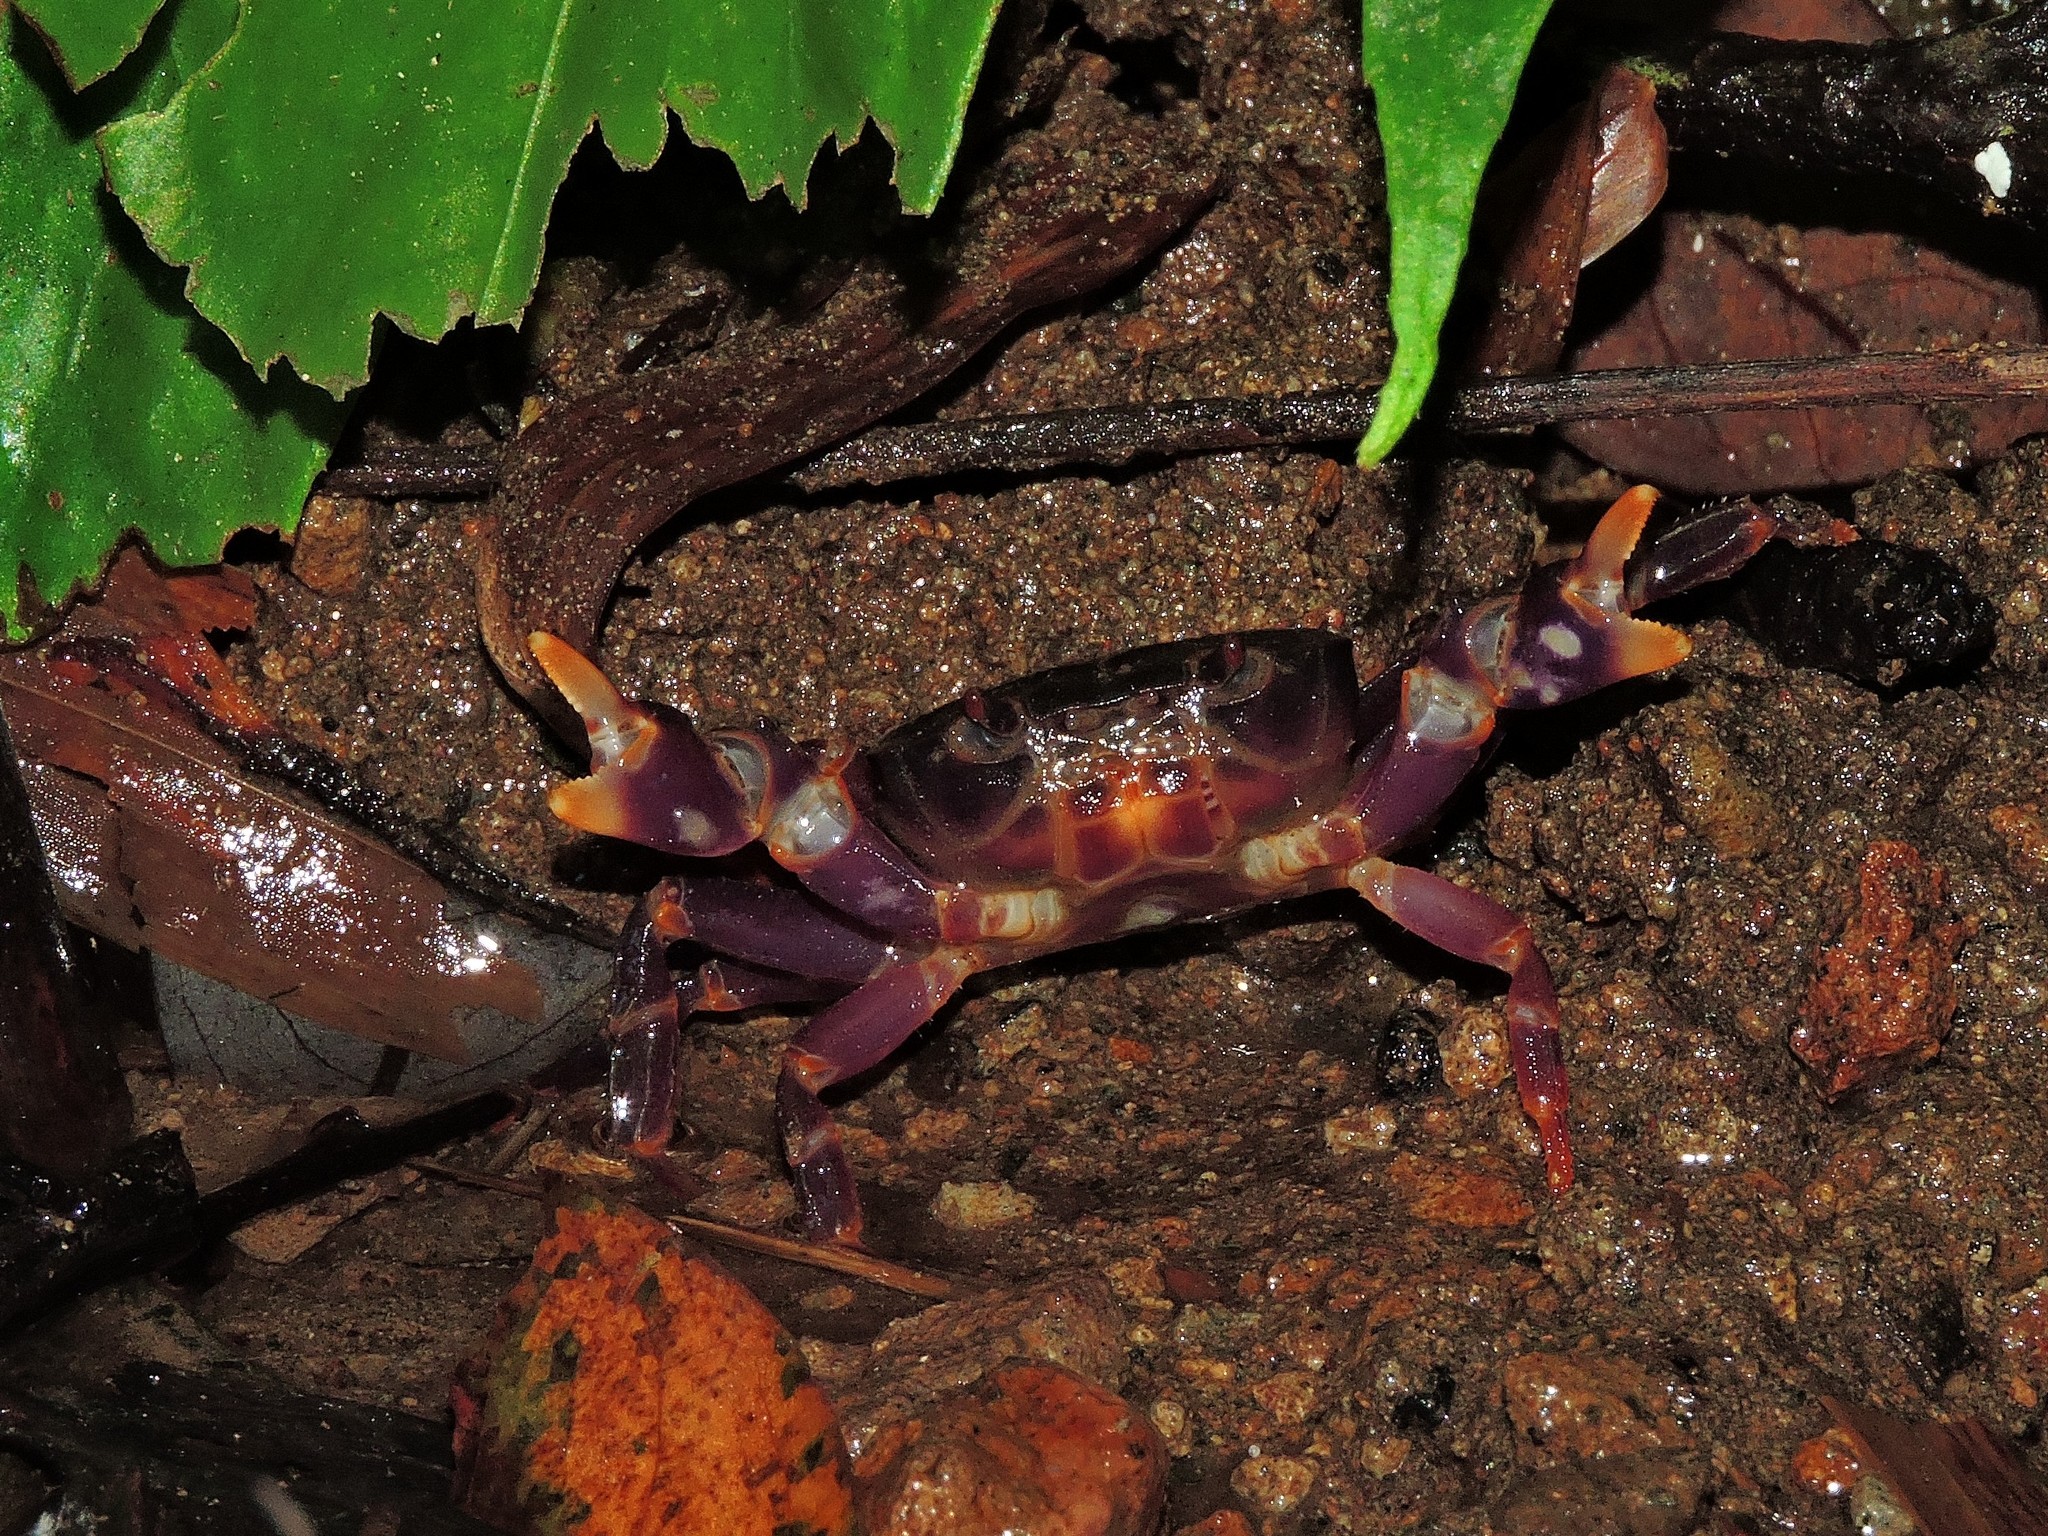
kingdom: Animalia
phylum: Arthropoda
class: Malacostraca
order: Decapoda
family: Potamidae
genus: Geothelphusa
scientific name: Geothelphusa miyazakii
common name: Miyazaki's crab
